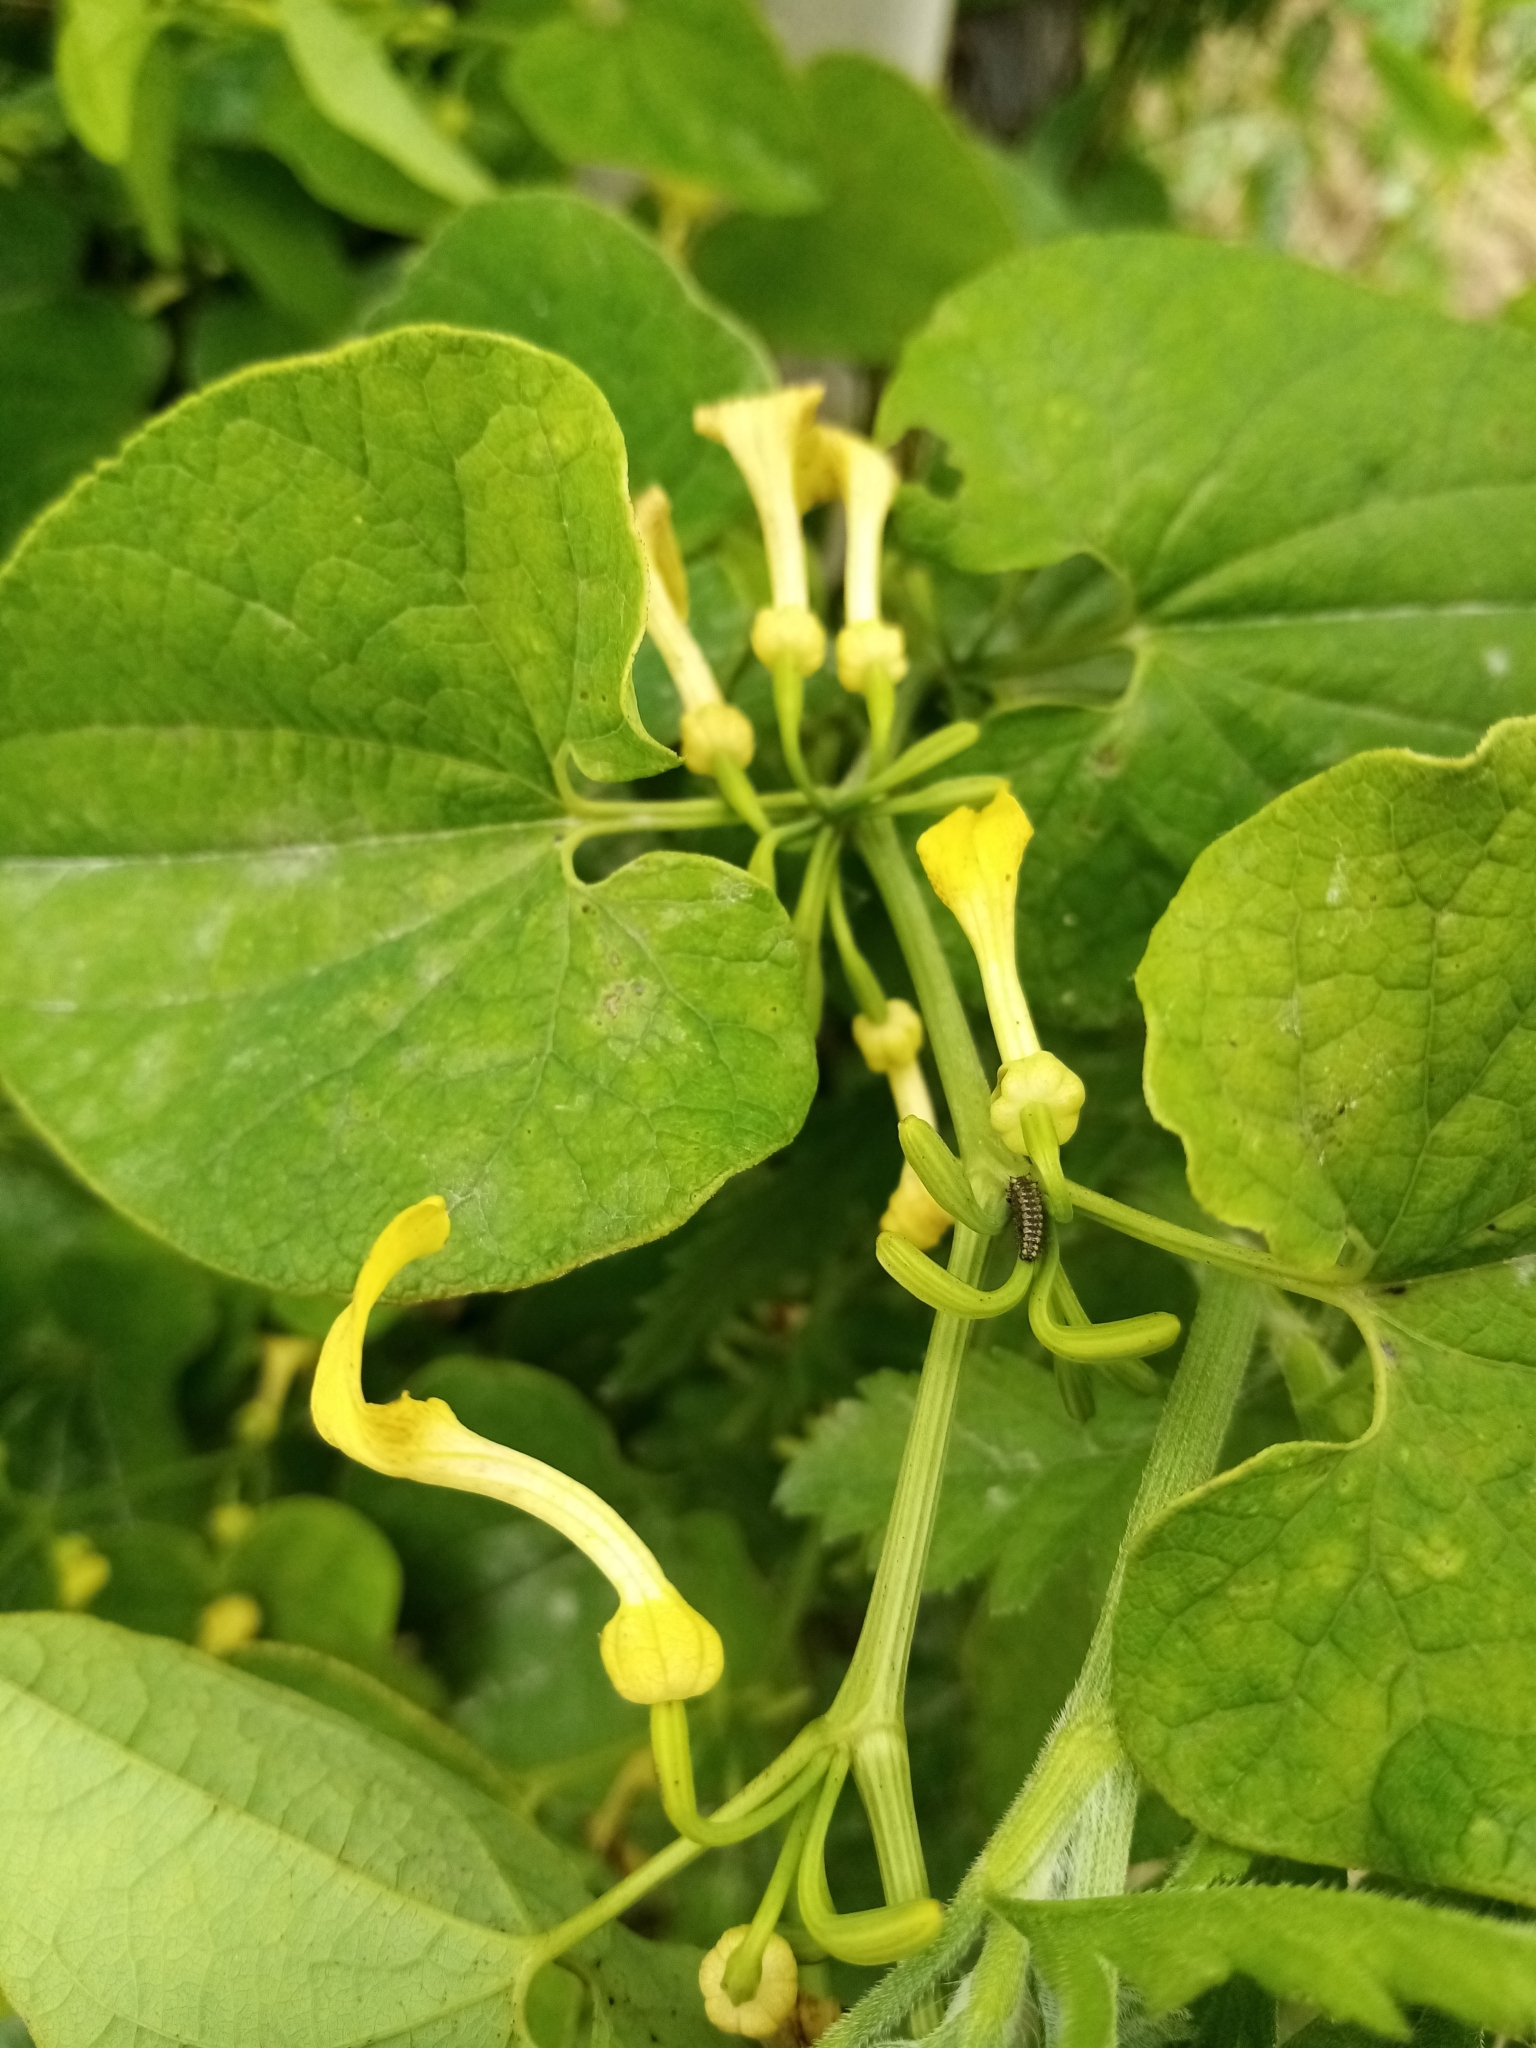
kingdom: Plantae
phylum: Tracheophyta
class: Magnoliopsida
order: Piperales
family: Aristolochiaceae
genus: Aristolochia
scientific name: Aristolochia clematitis
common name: Birthwort
